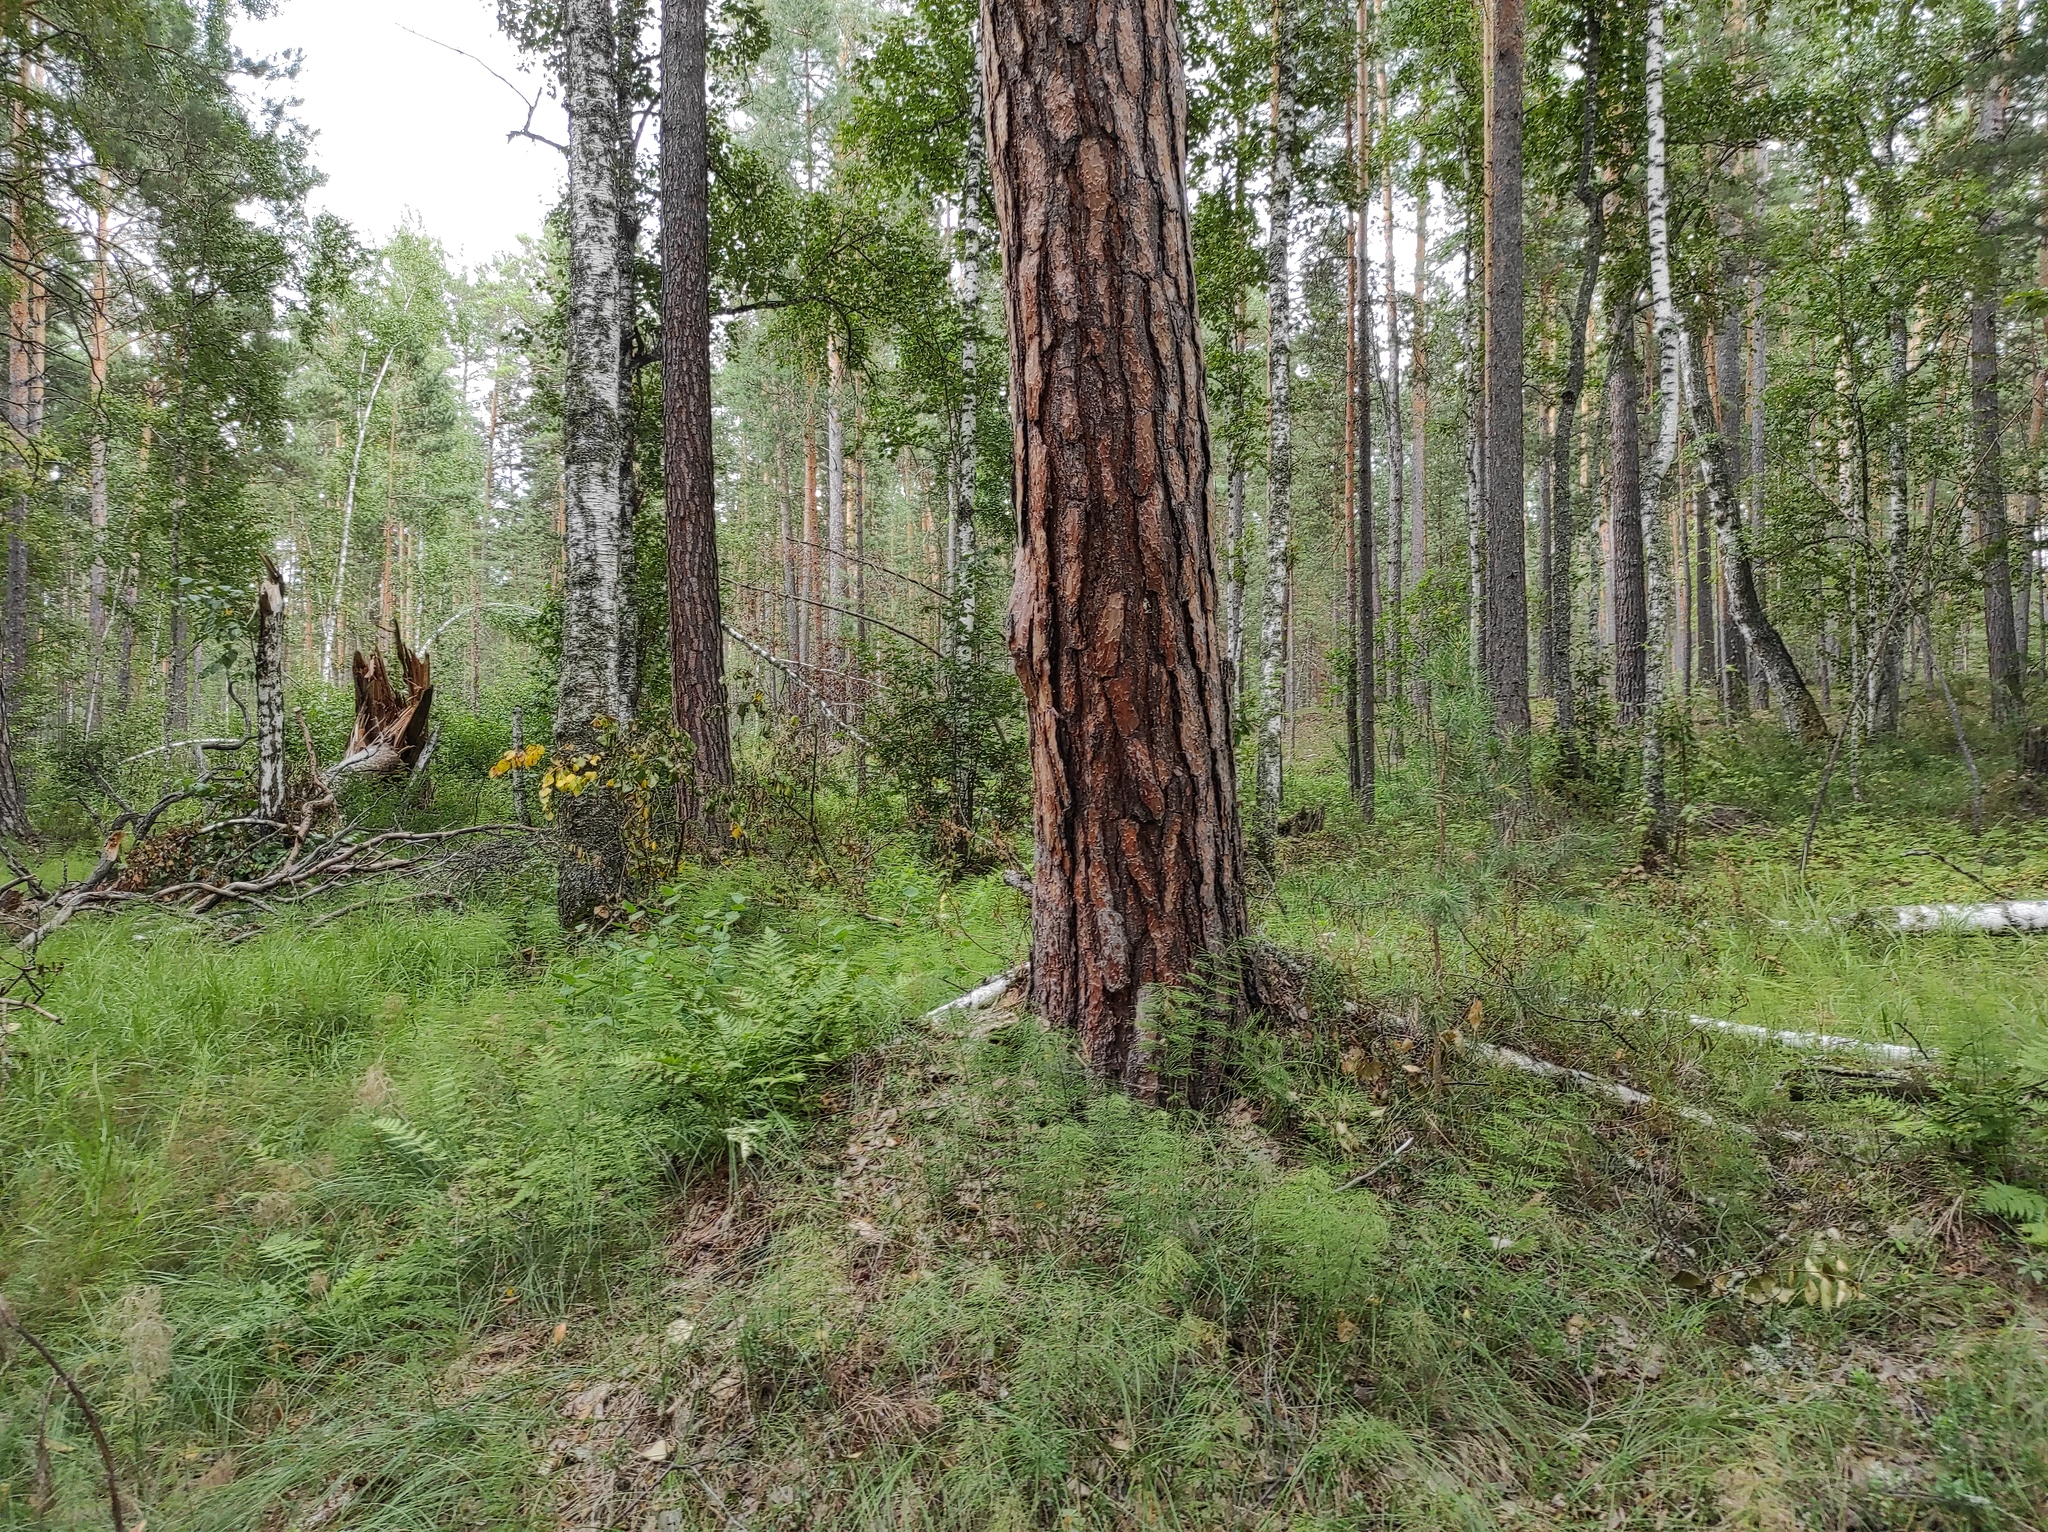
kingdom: Plantae
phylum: Tracheophyta
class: Pinopsida
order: Pinales
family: Pinaceae
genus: Pinus
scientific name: Pinus sylvestris
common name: Scots pine
